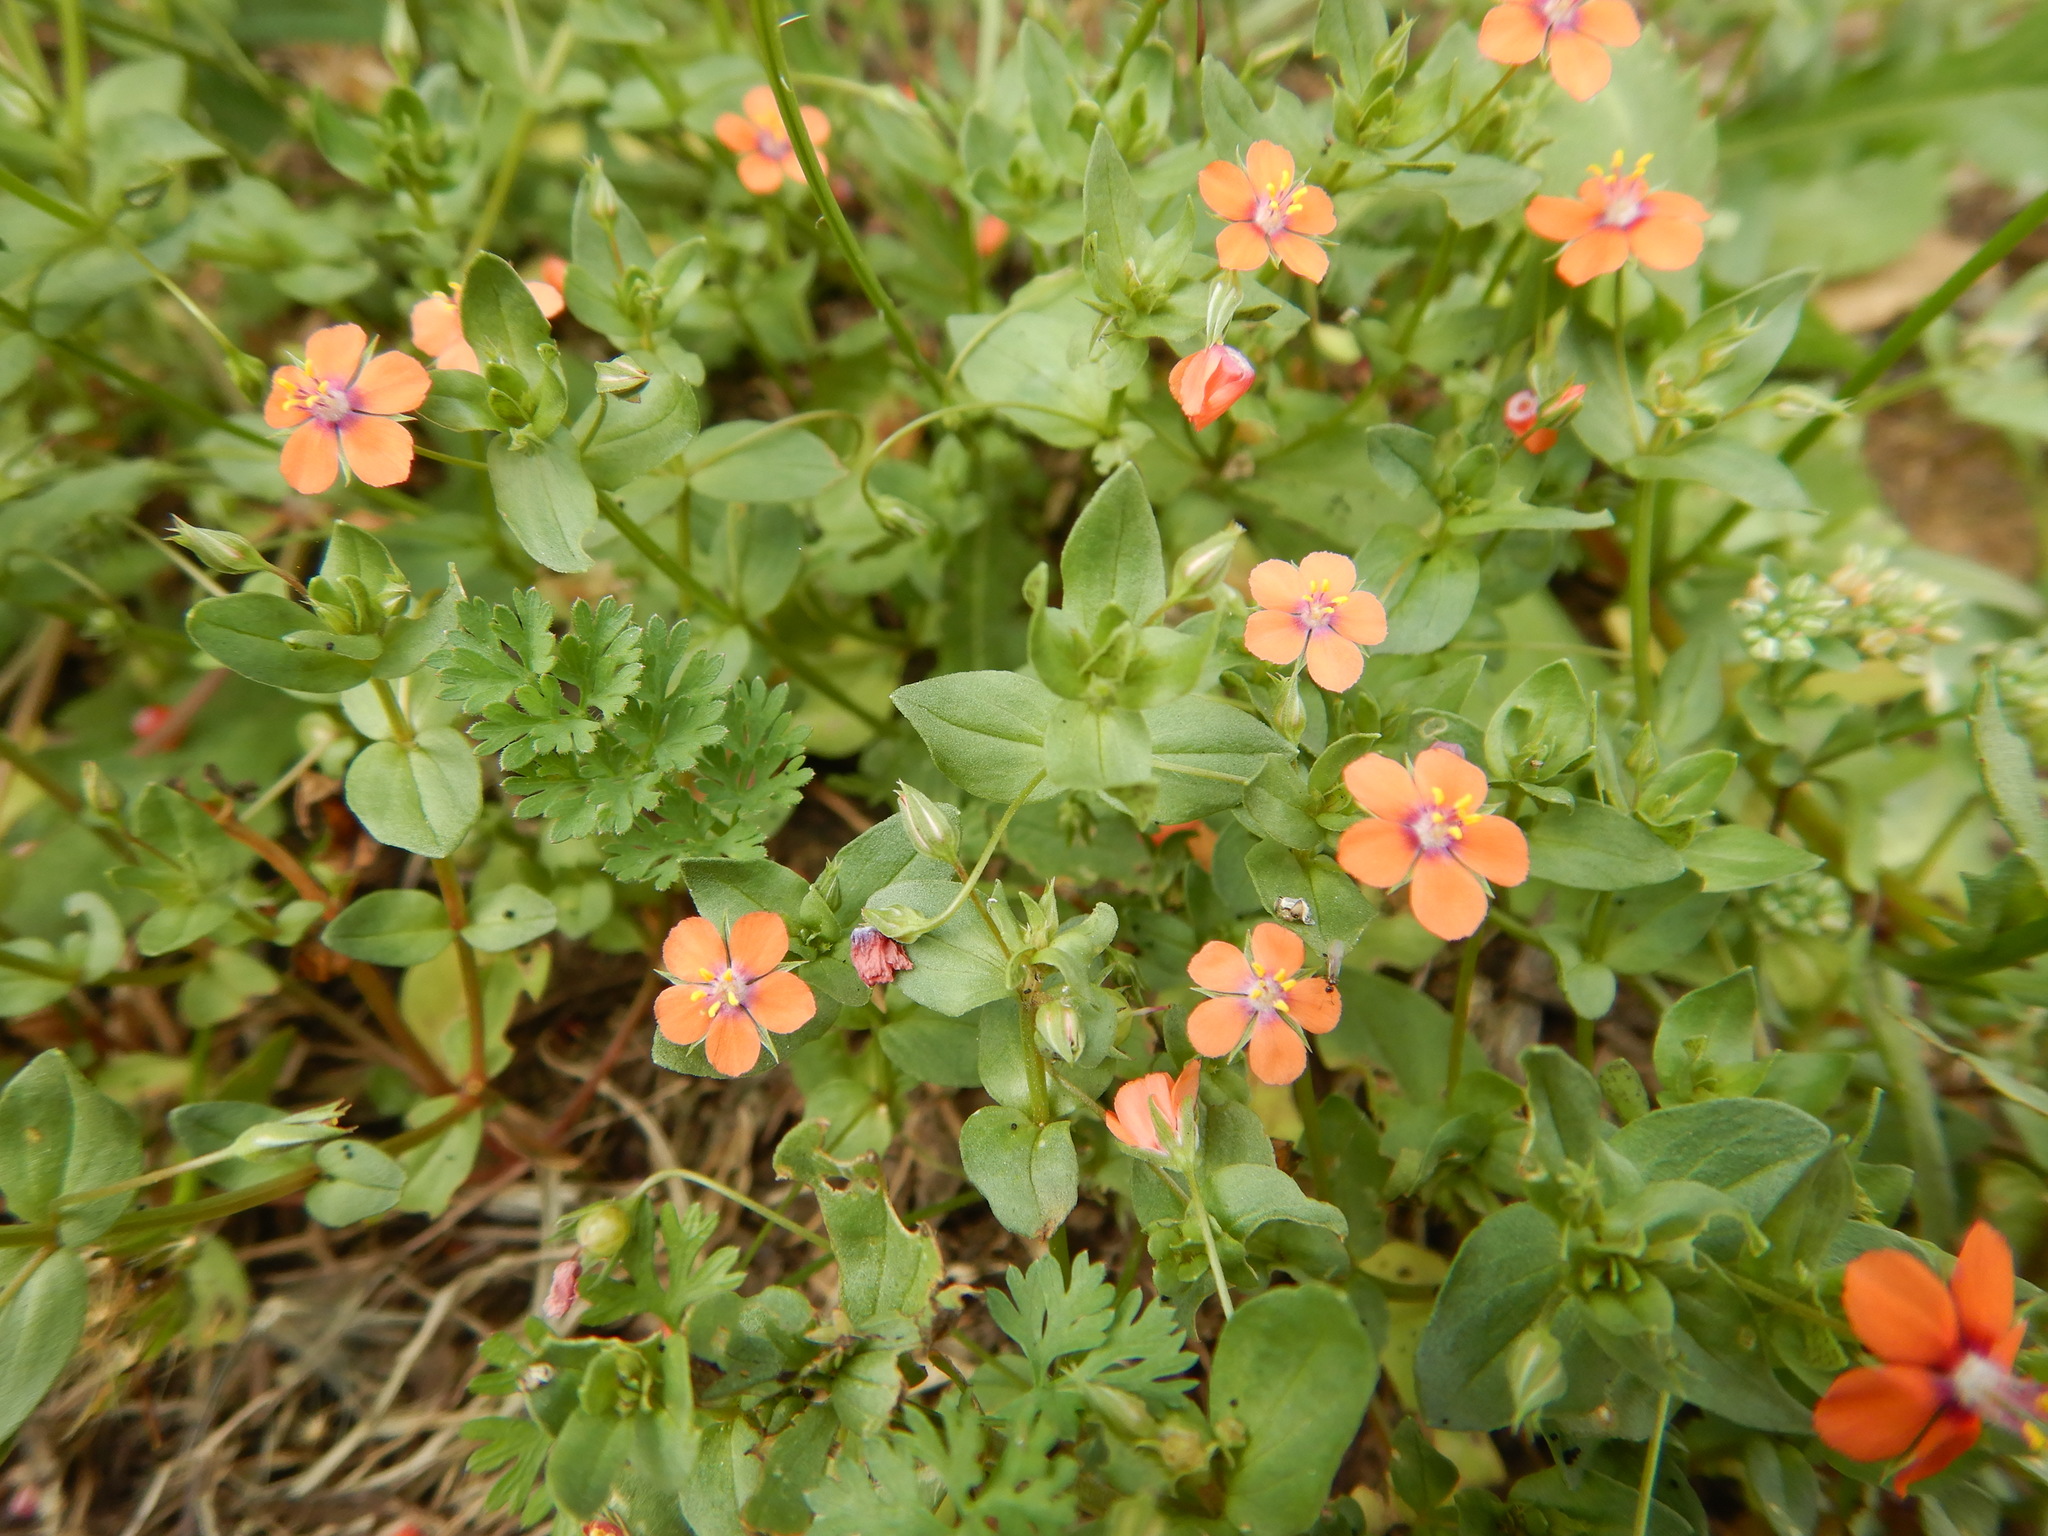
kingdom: Plantae
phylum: Tracheophyta
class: Magnoliopsida
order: Ericales
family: Primulaceae
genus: Lysimachia
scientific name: Lysimachia arvensis
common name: Scarlet pimpernel
